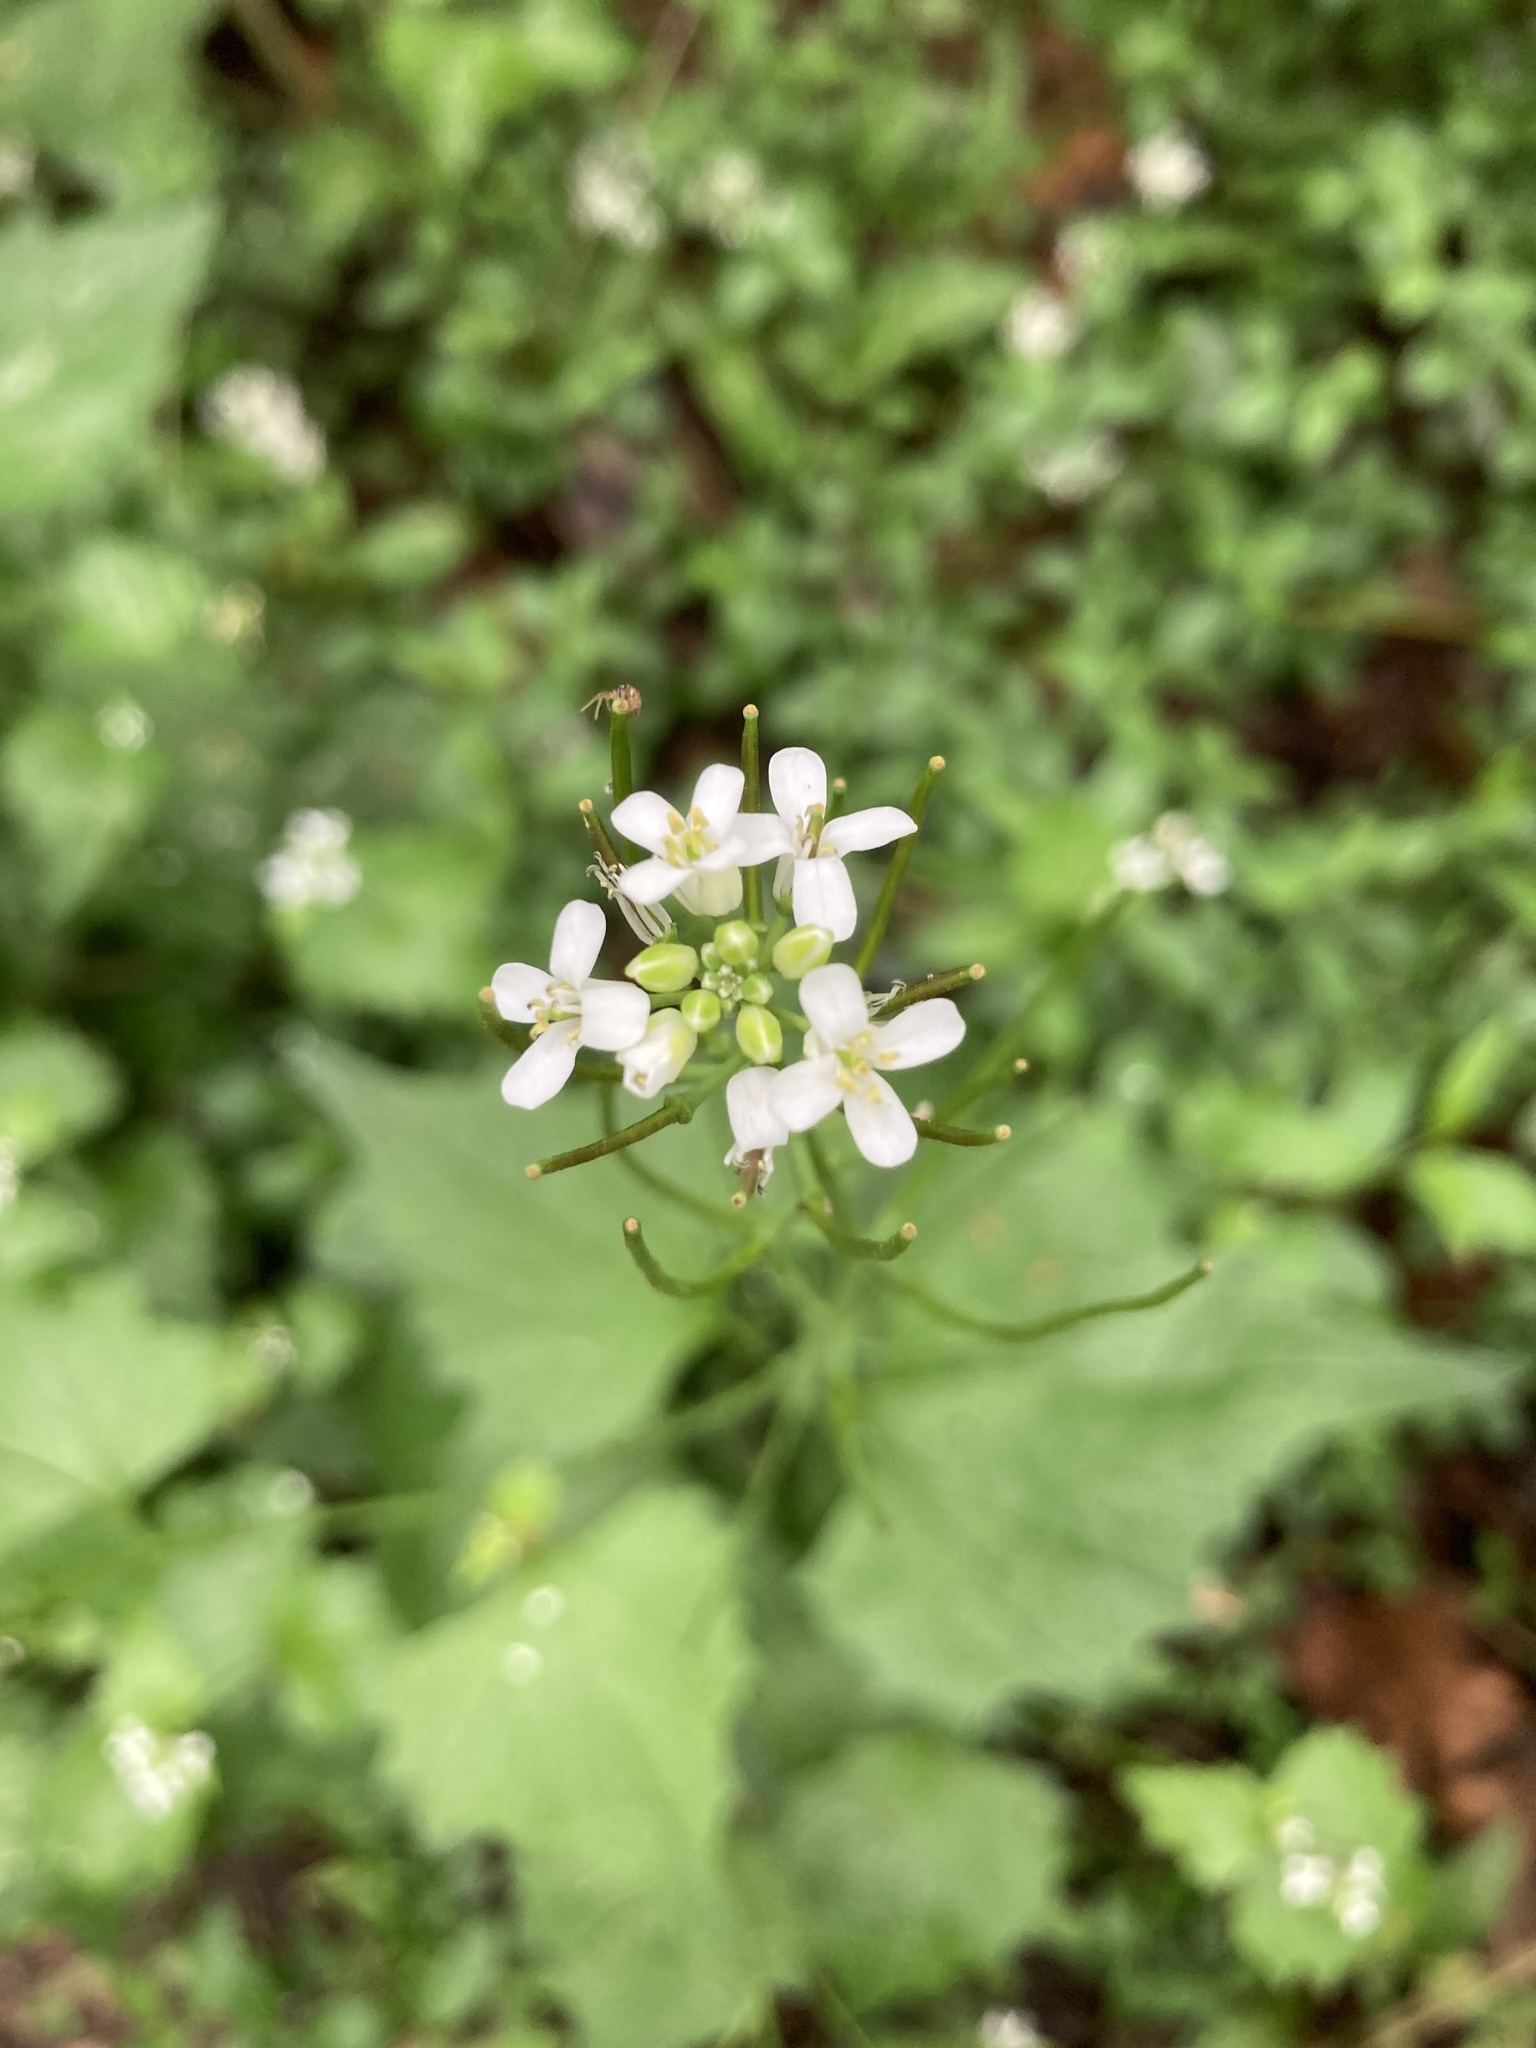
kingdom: Plantae
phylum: Tracheophyta
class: Magnoliopsida
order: Brassicales
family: Brassicaceae
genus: Alliaria
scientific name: Alliaria petiolata
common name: Garlic mustard
